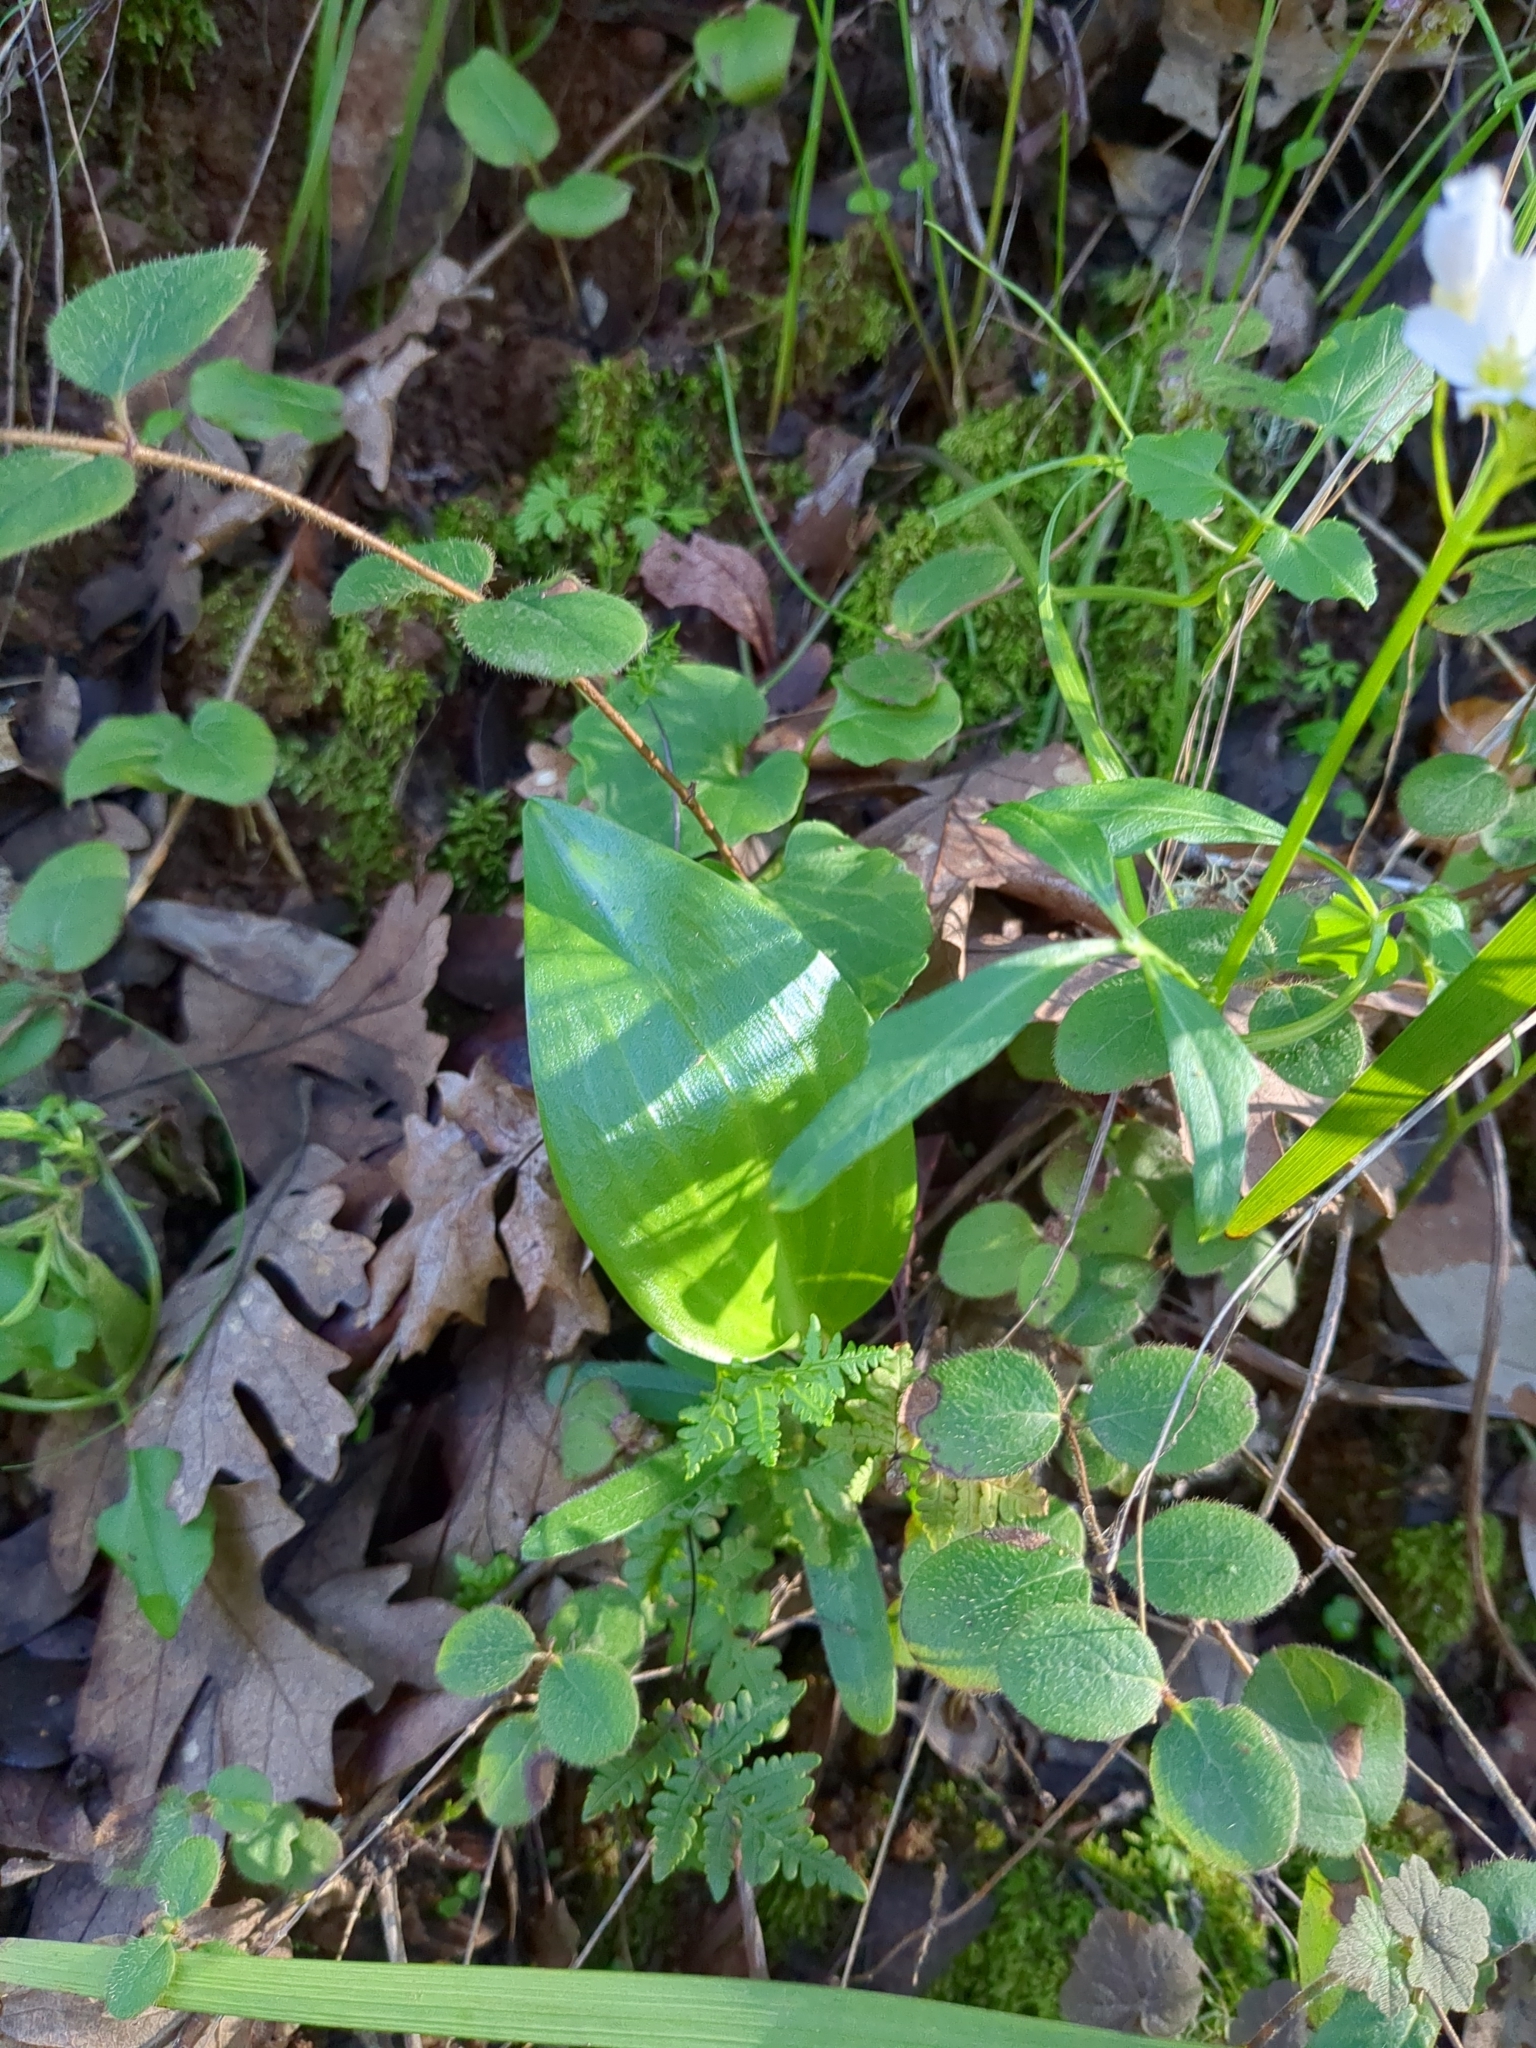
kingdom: Plantae
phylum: Tracheophyta
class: Liliopsida
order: Liliales
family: Liliaceae
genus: Fritillaria
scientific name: Fritillaria affinis
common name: Ojai fritillary
